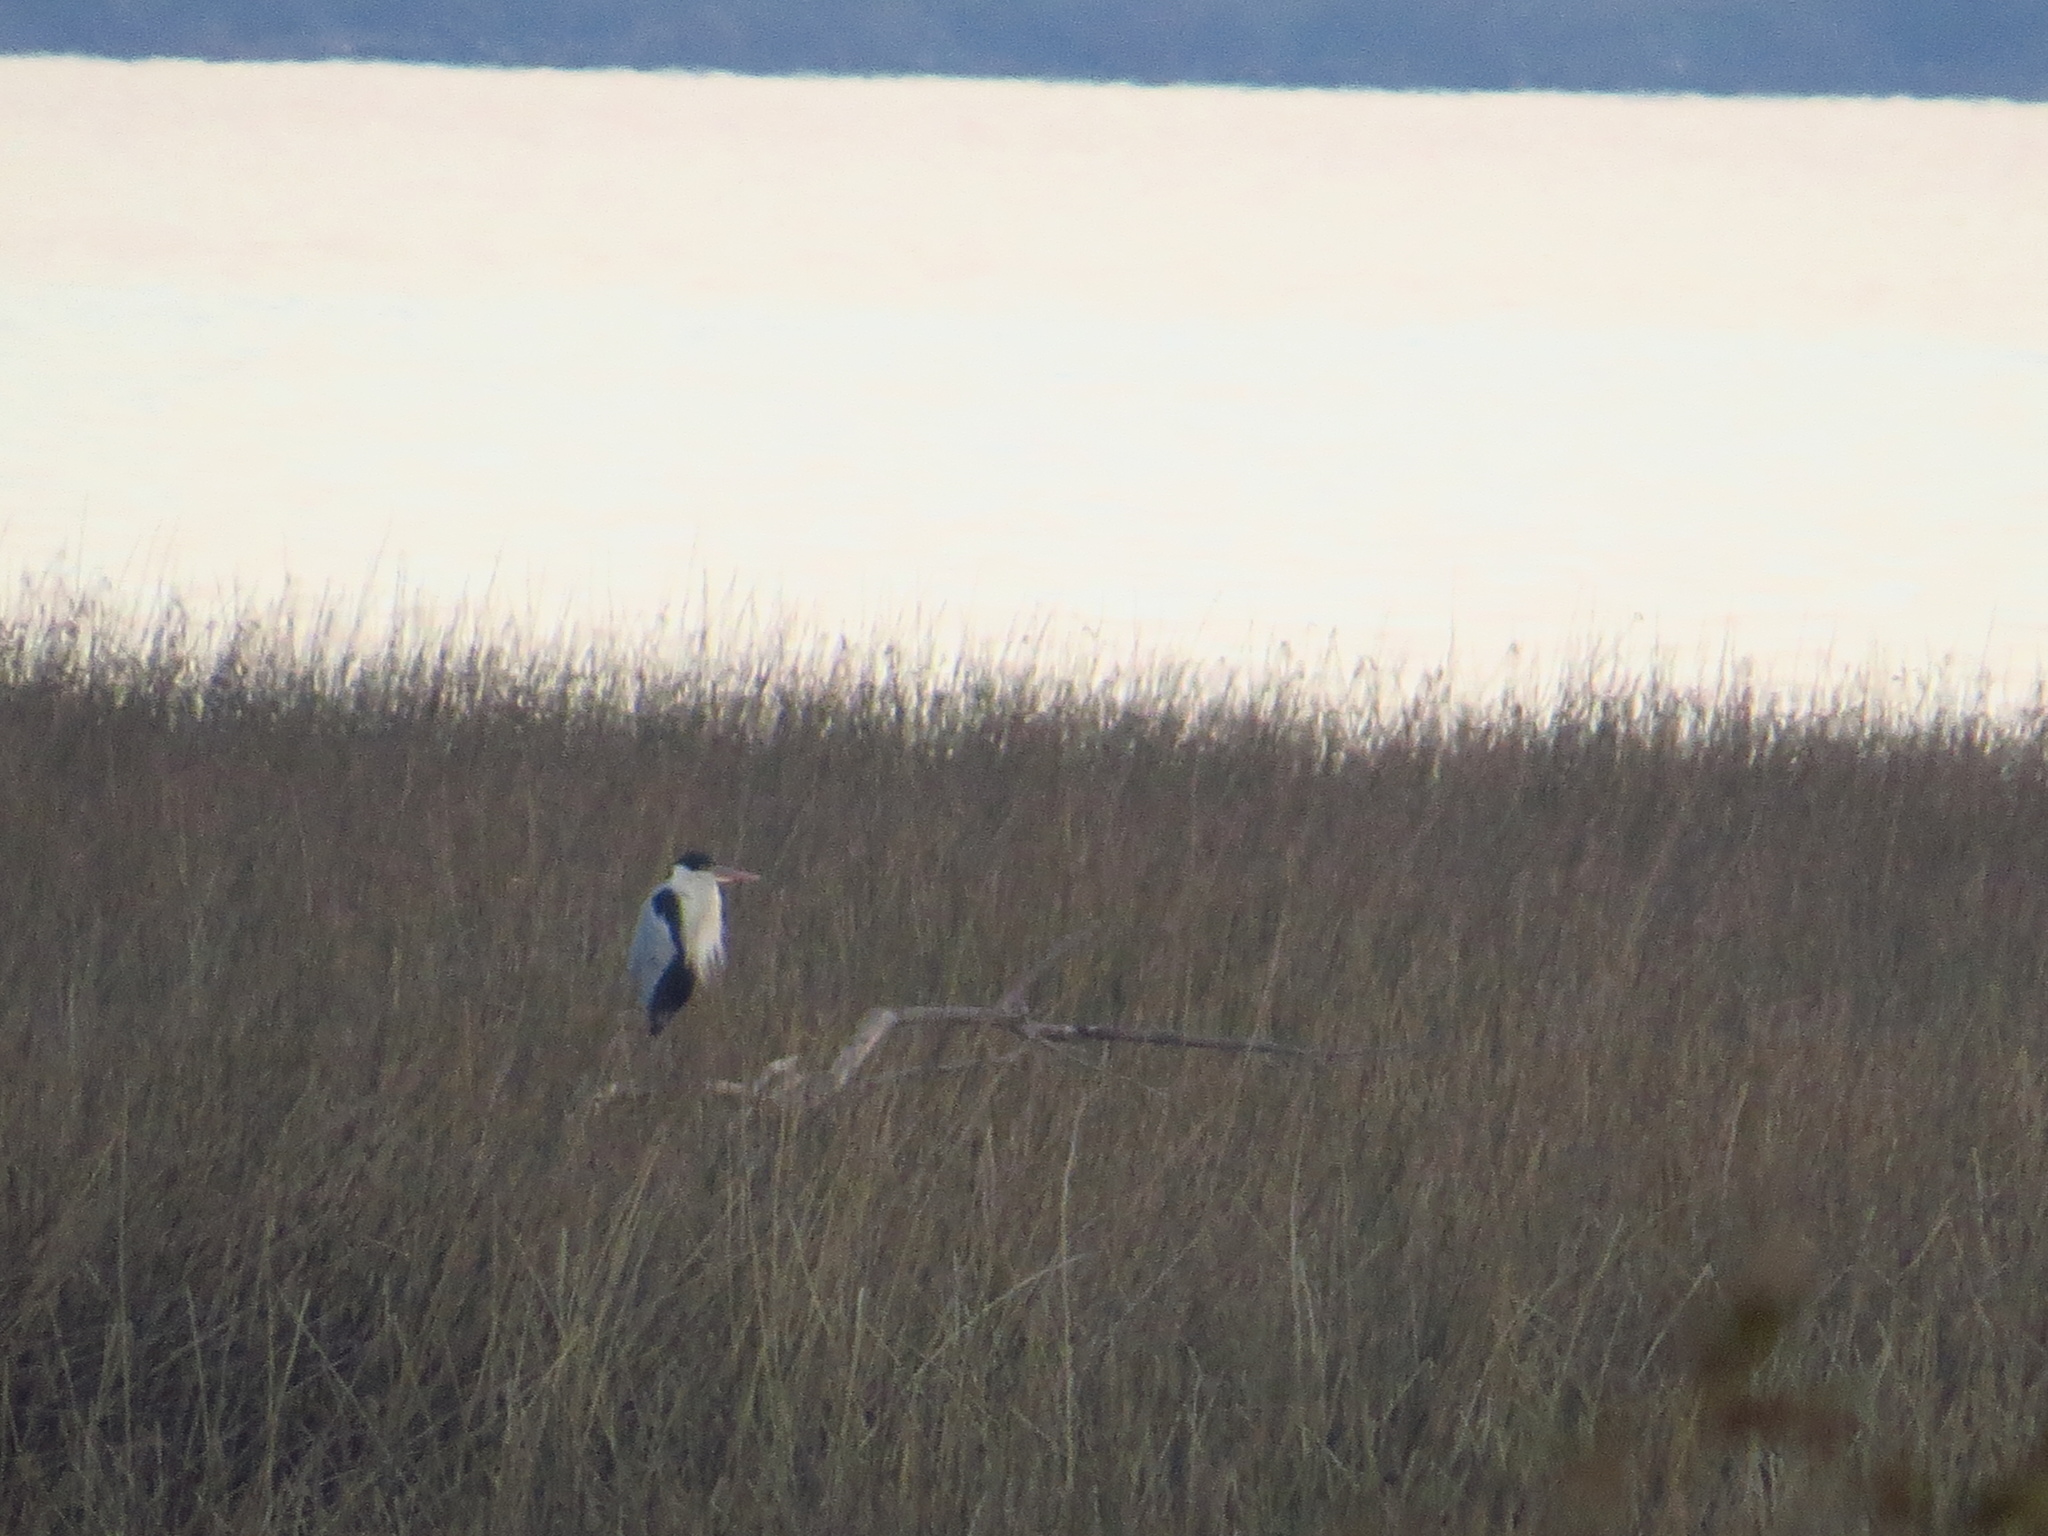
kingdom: Animalia
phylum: Chordata
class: Aves
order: Pelecaniformes
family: Ardeidae
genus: Ardea
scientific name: Ardea cocoi
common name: Cocoi heron
